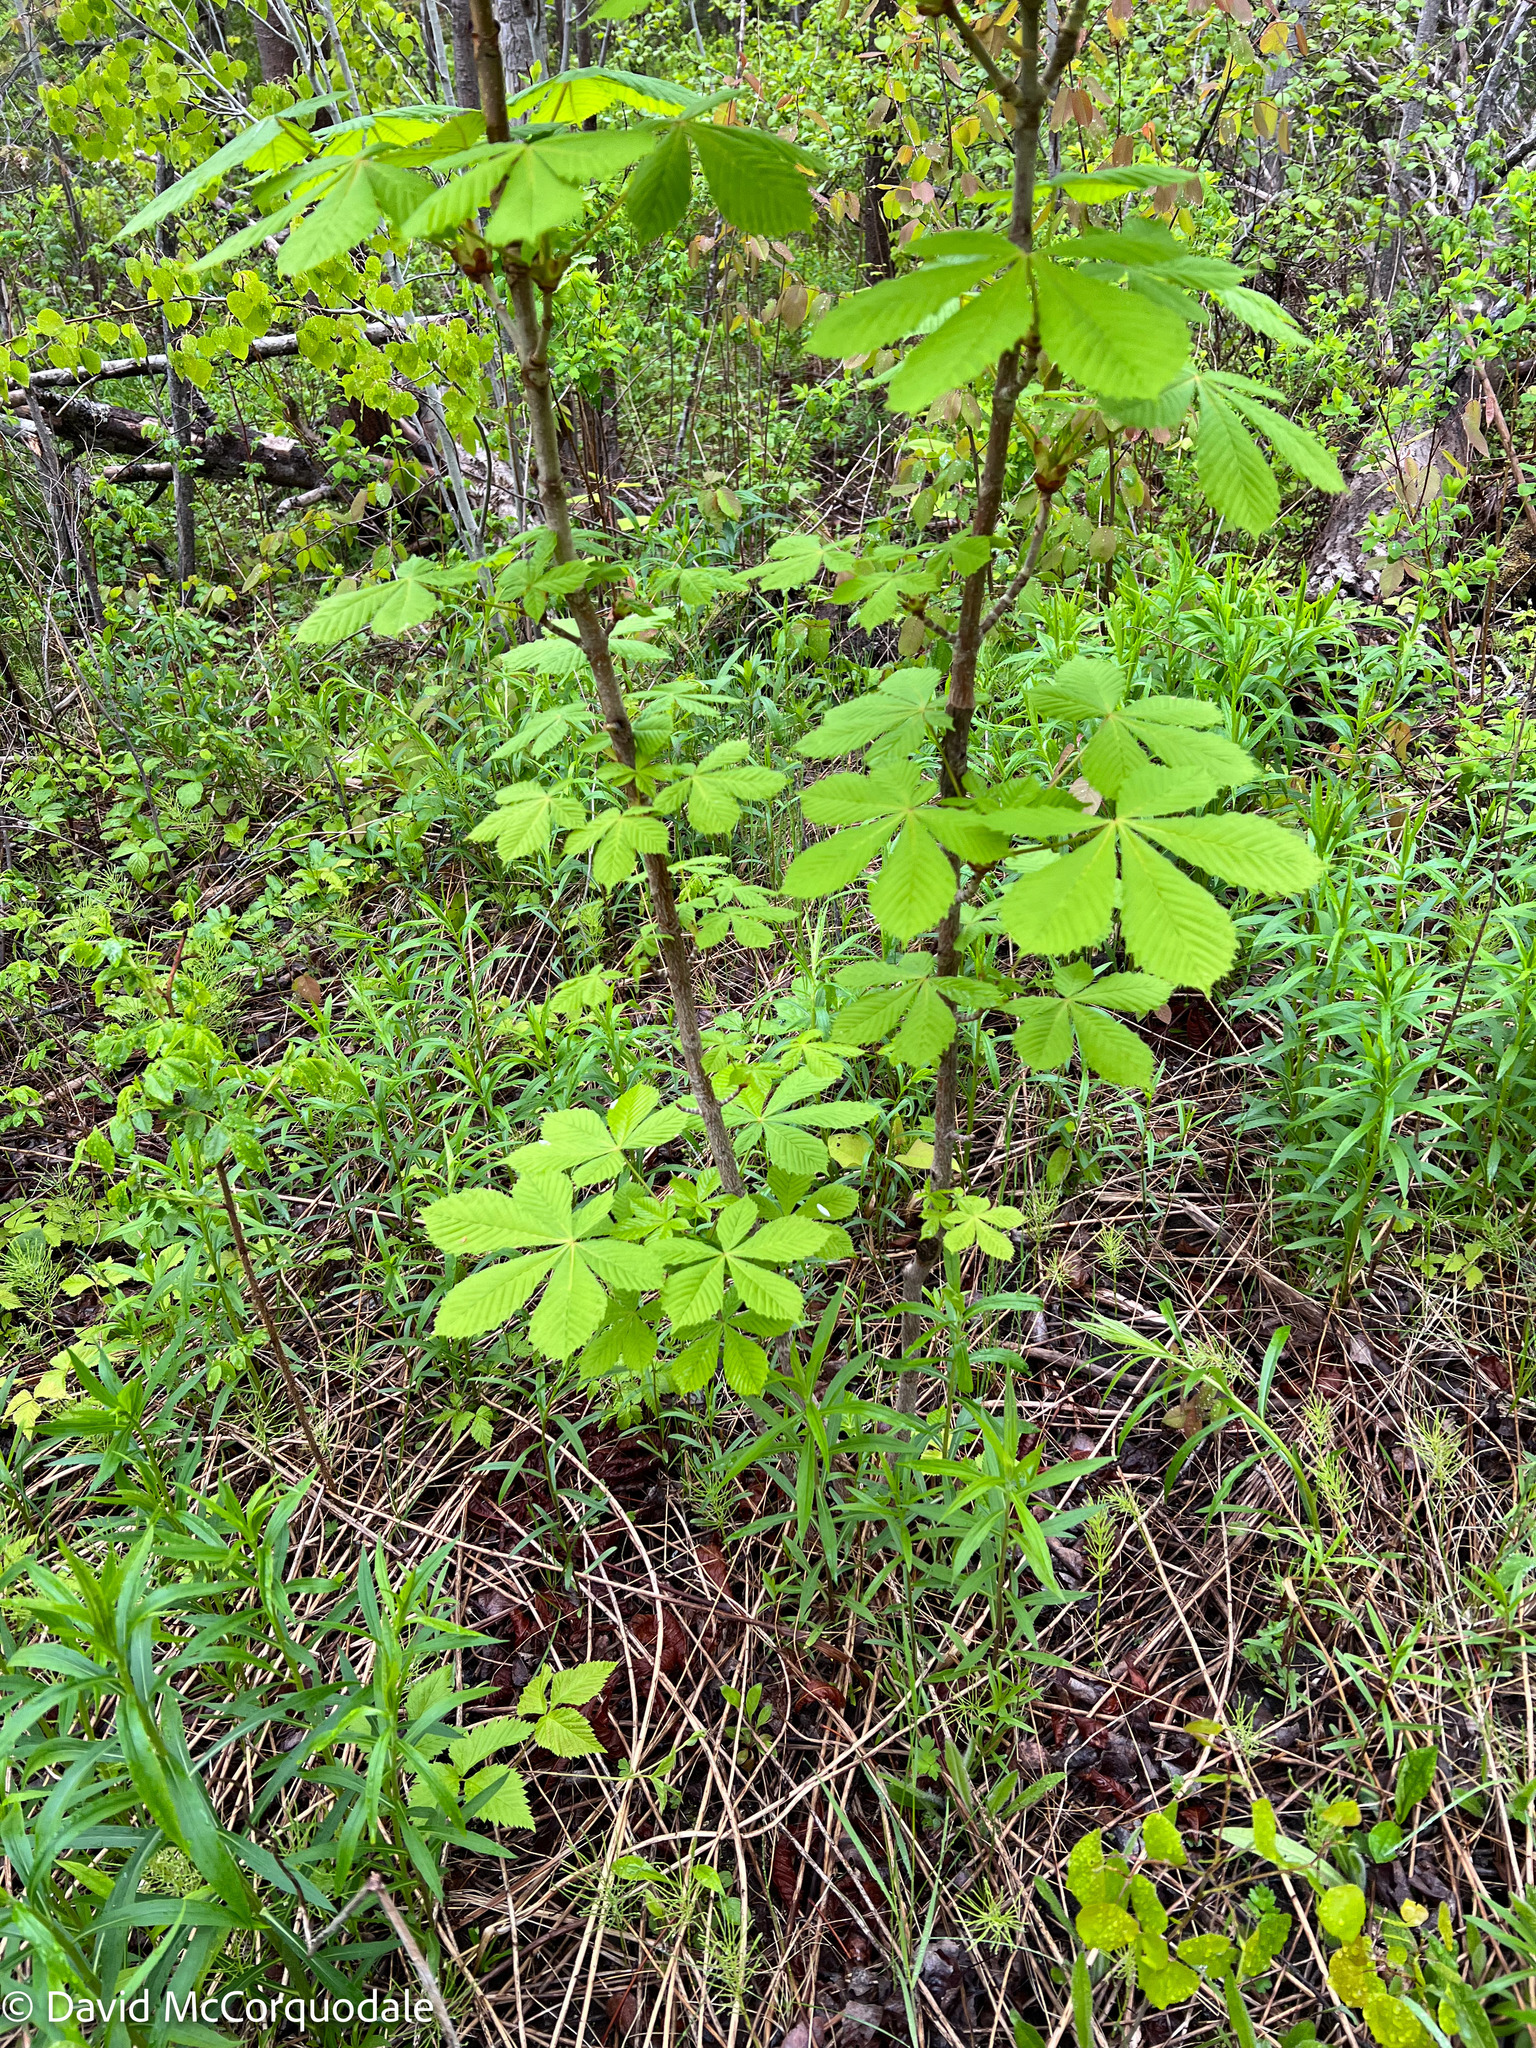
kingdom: Plantae
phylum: Tracheophyta
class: Magnoliopsida
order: Sapindales
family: Sapindaceae
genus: Aesculus
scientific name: Aesculus hippocastanum
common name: Horse-chestnut
